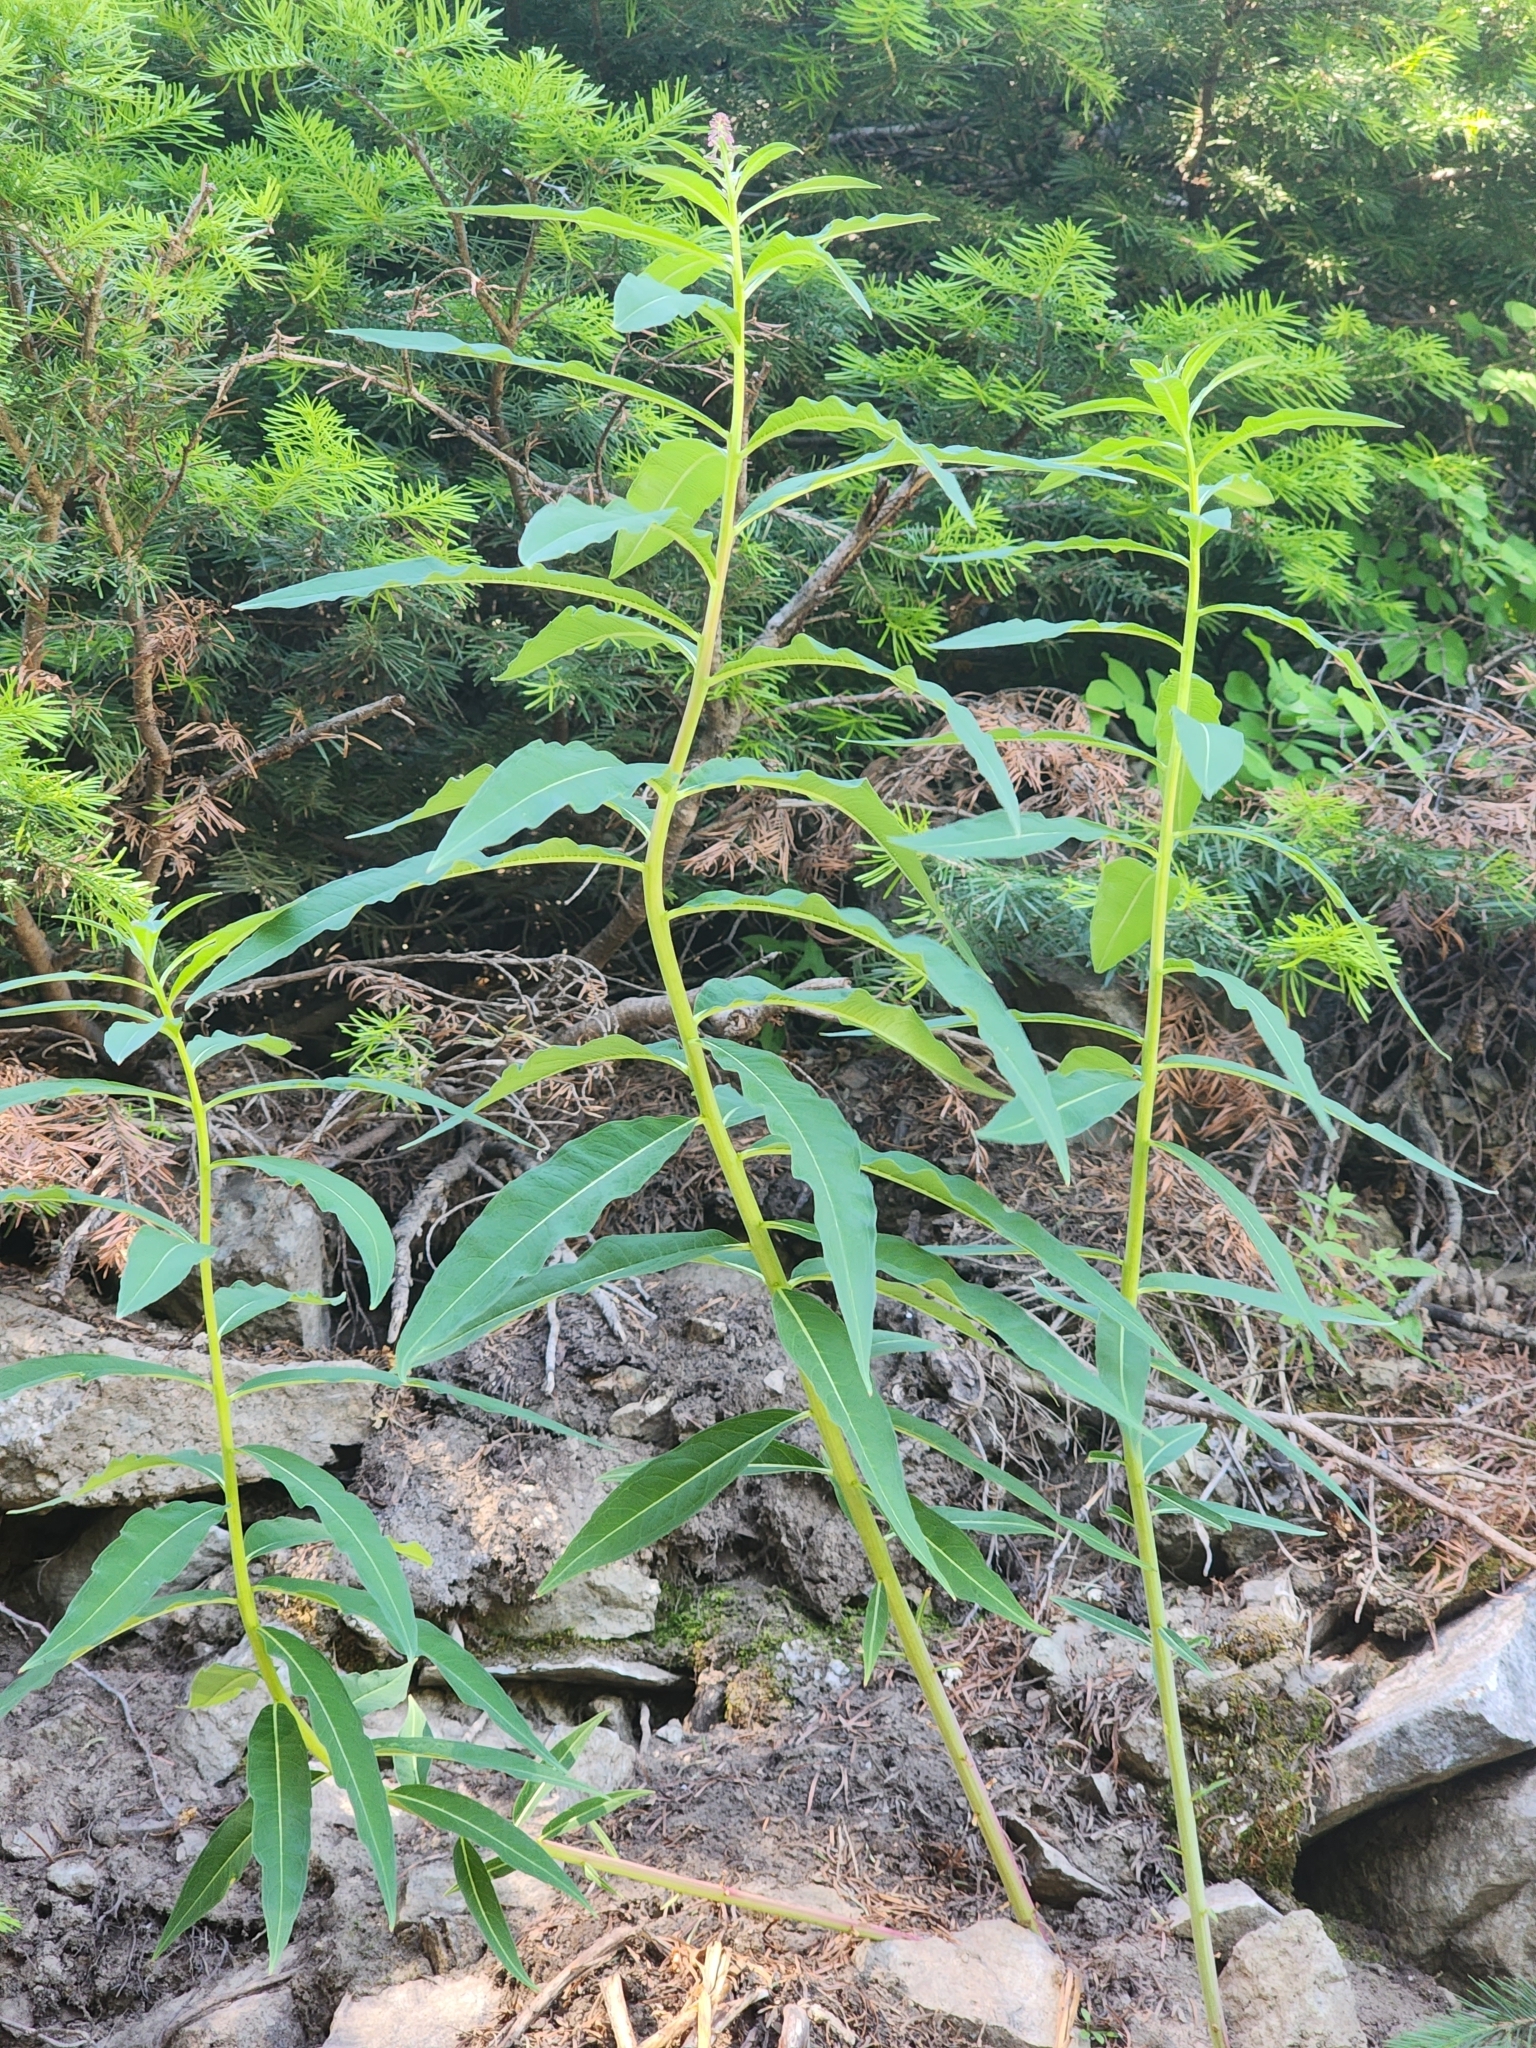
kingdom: Plantae
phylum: Tracheophyta
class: Magnoliopsida
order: Myrtales
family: Onagraceae
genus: Chamaenerion
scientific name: Chamaenerion angustifolium
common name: Fireweed
